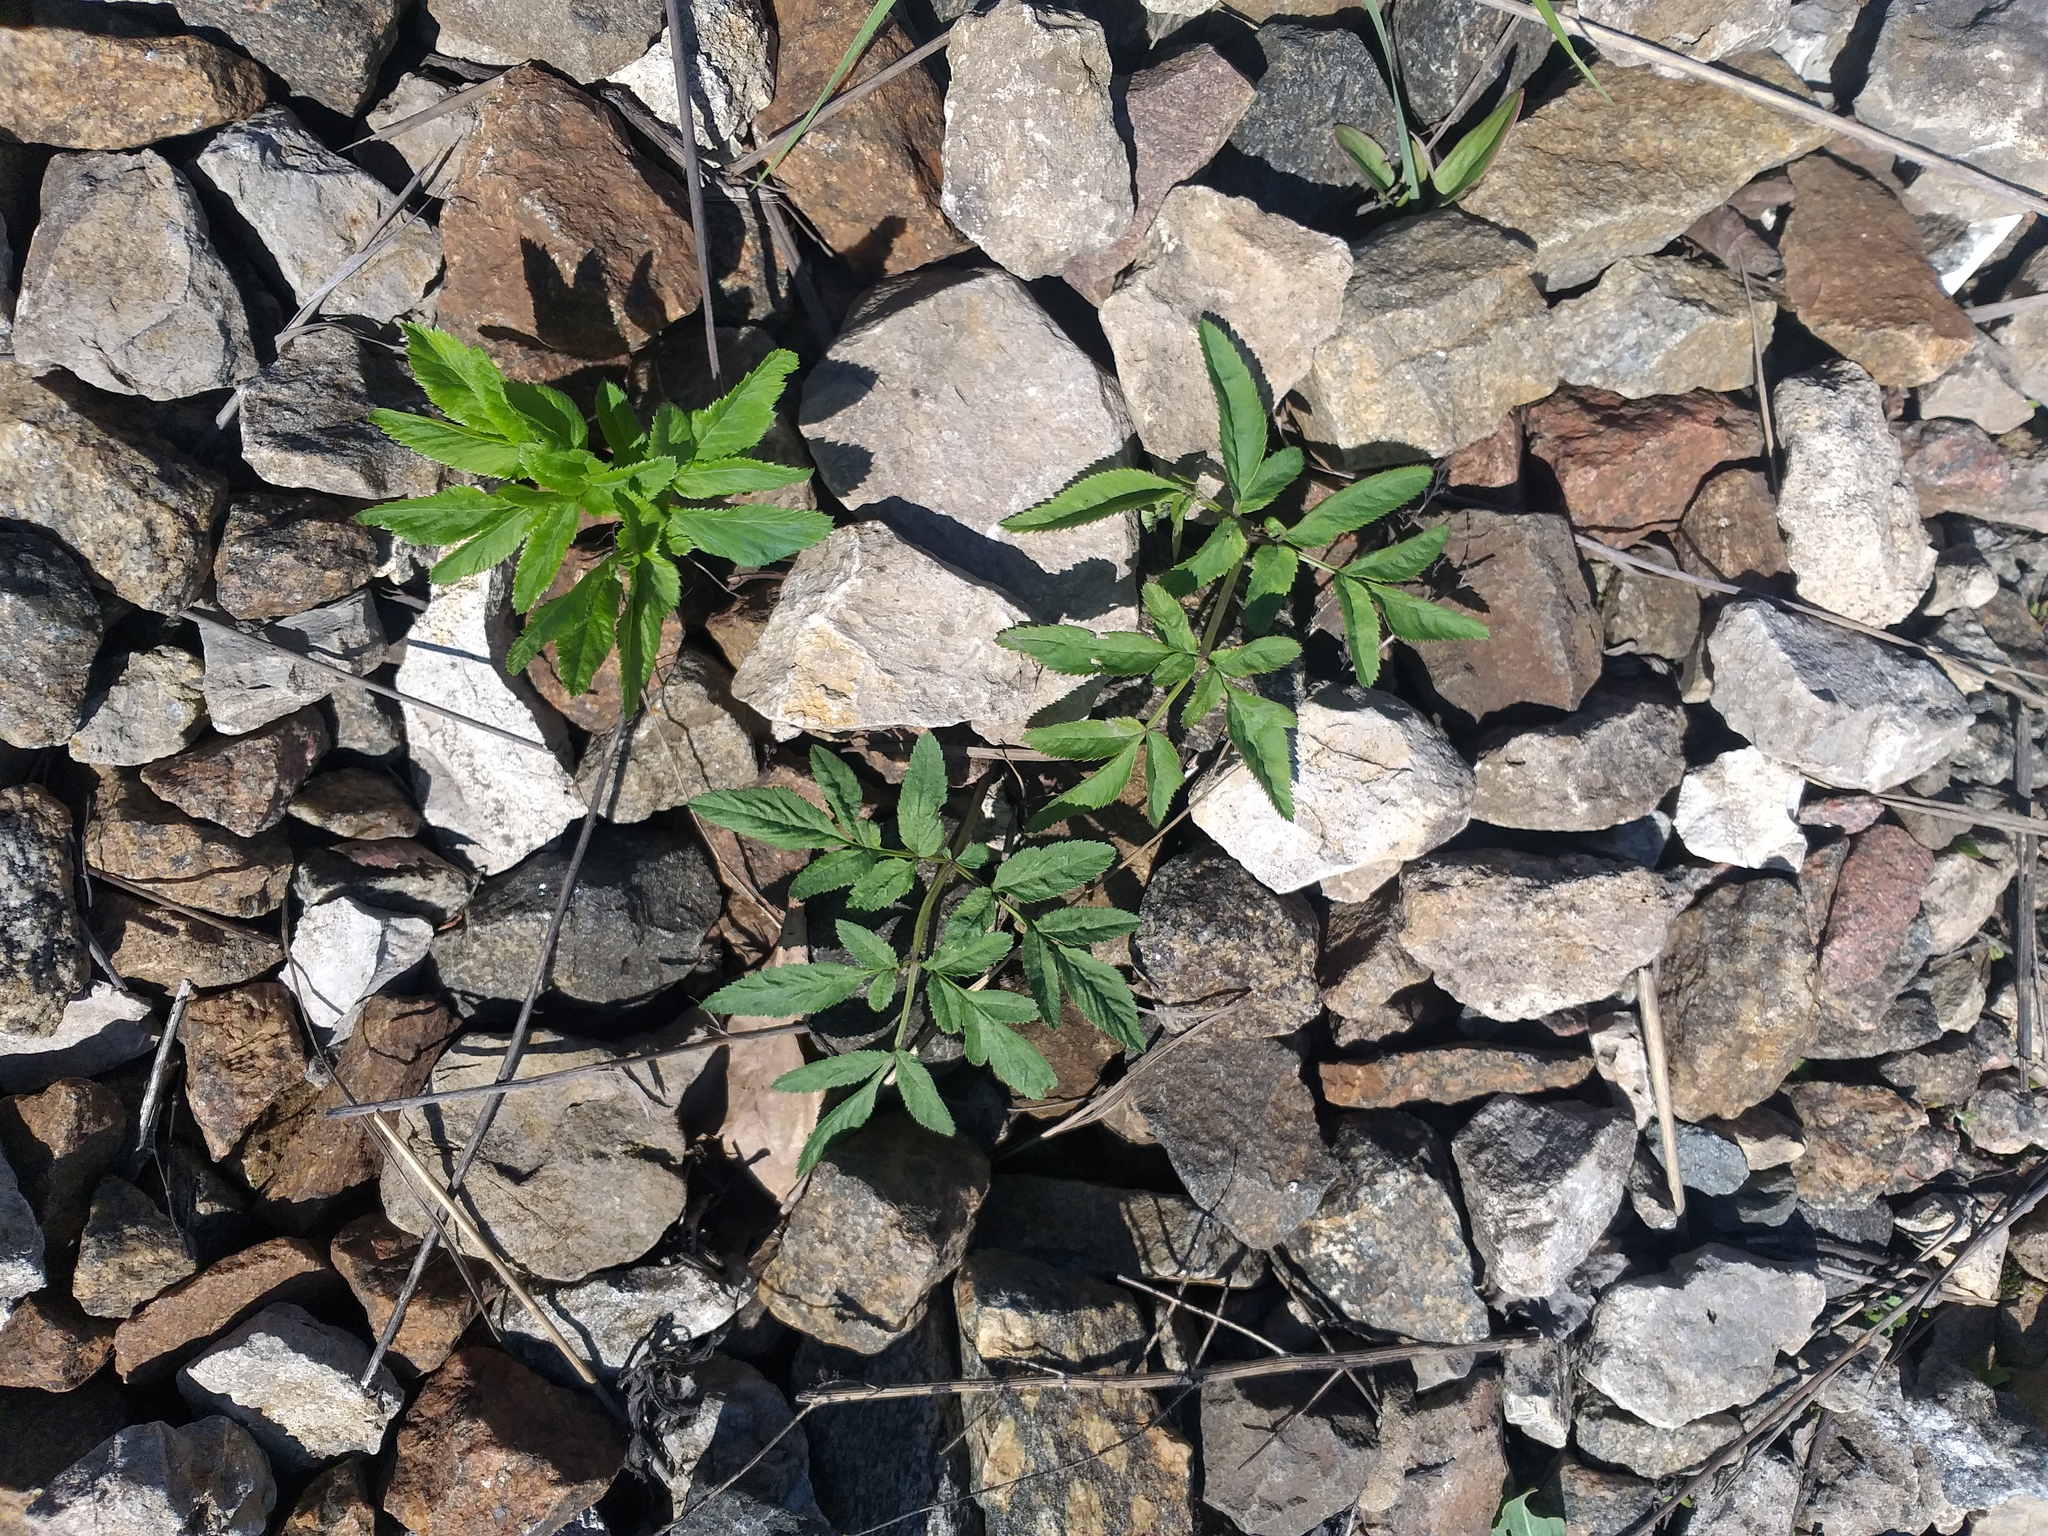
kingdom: Plantae
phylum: Tracheophyta
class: Magnoliopsida
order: Apiales
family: Apiaceae
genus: Angelica
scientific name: Angelica sylvestris
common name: Wild angelica
